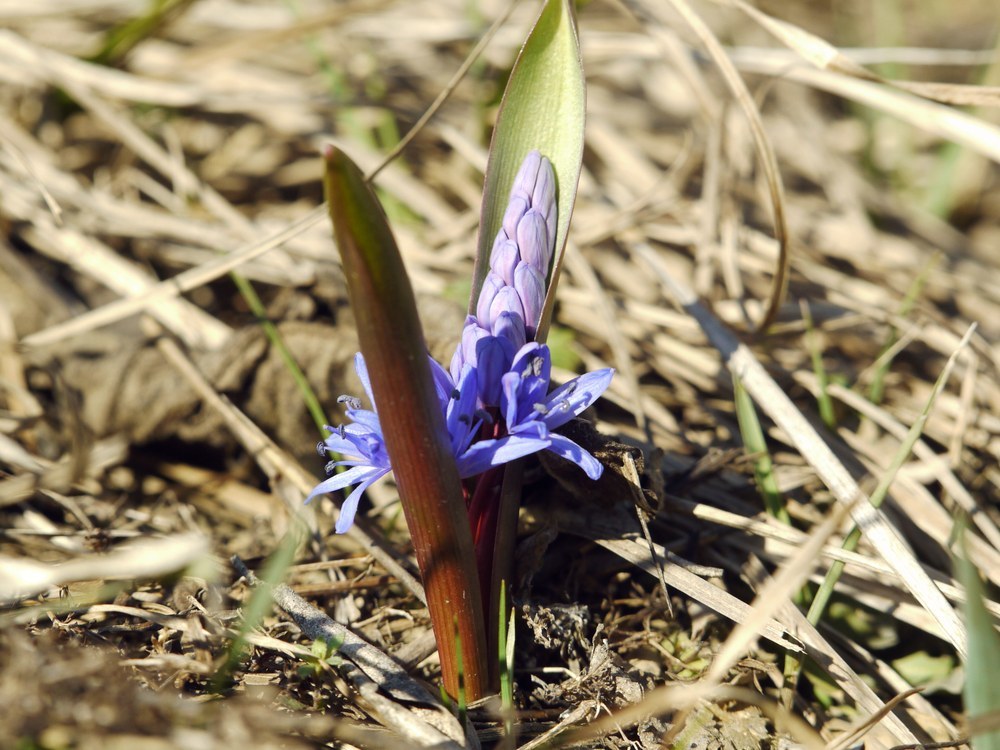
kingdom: Plantae
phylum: Tracheophyta
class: Liliopsida
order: Asparagales
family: Asparagaceae
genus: Scilla
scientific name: Scilla bifolia
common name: Alpine squill
